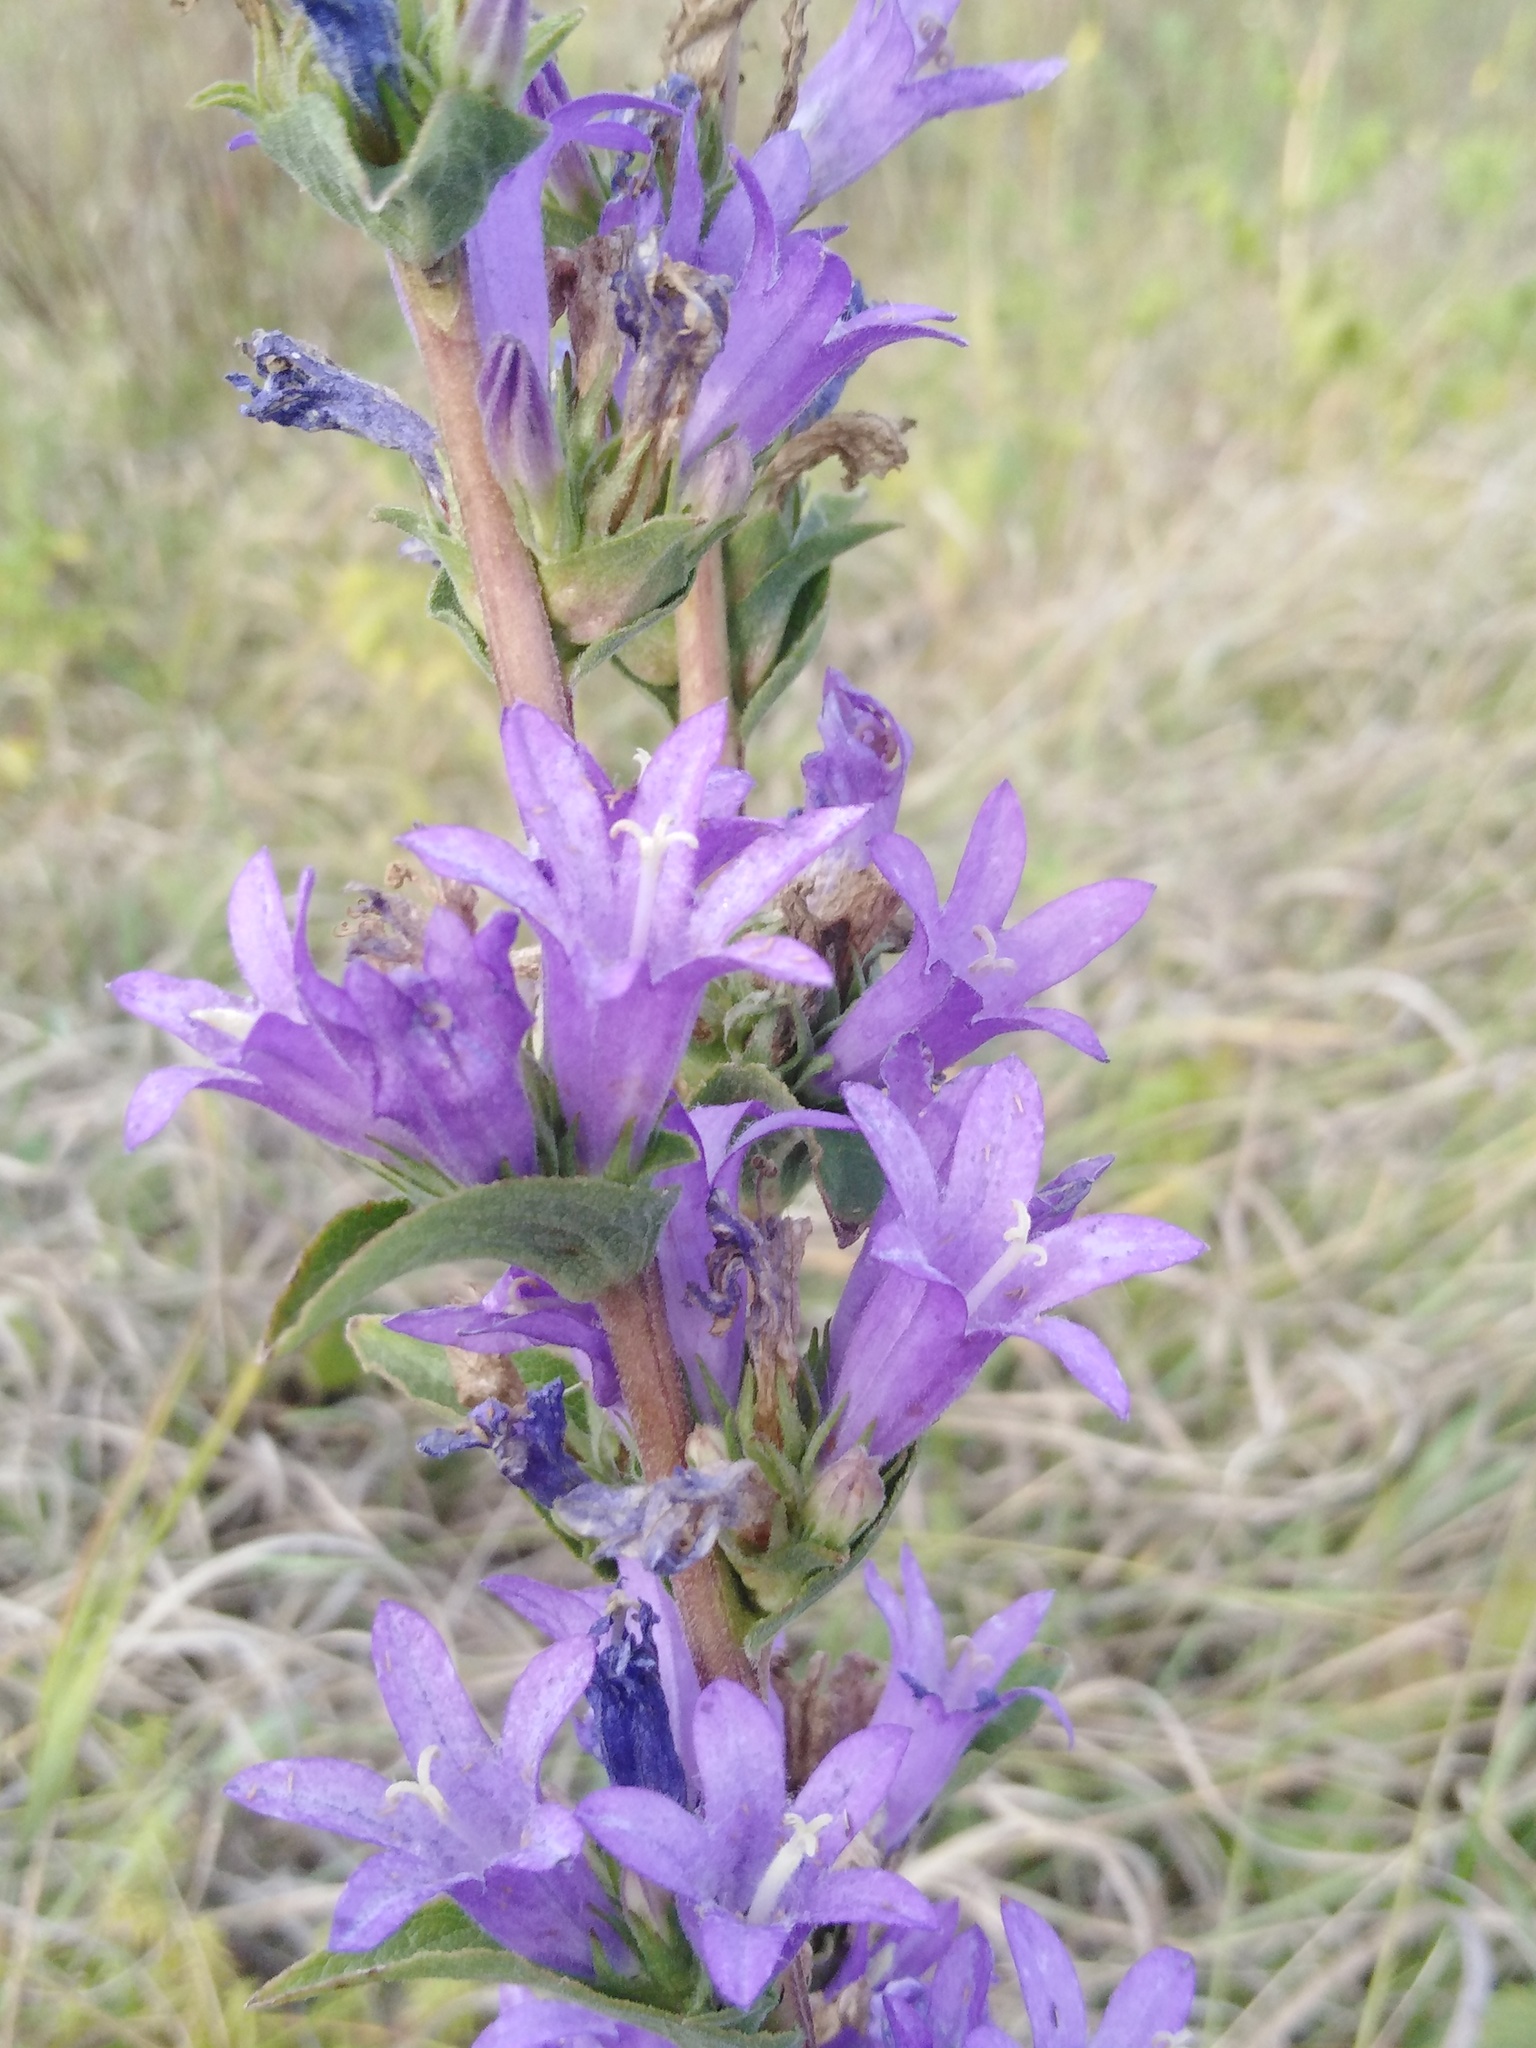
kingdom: Plantae
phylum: Tracheophyta
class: Magnoliopsida
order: Asterales
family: Campanulaceae
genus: Campanula
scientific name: Campanula glomerata
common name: Clustered bellflower
